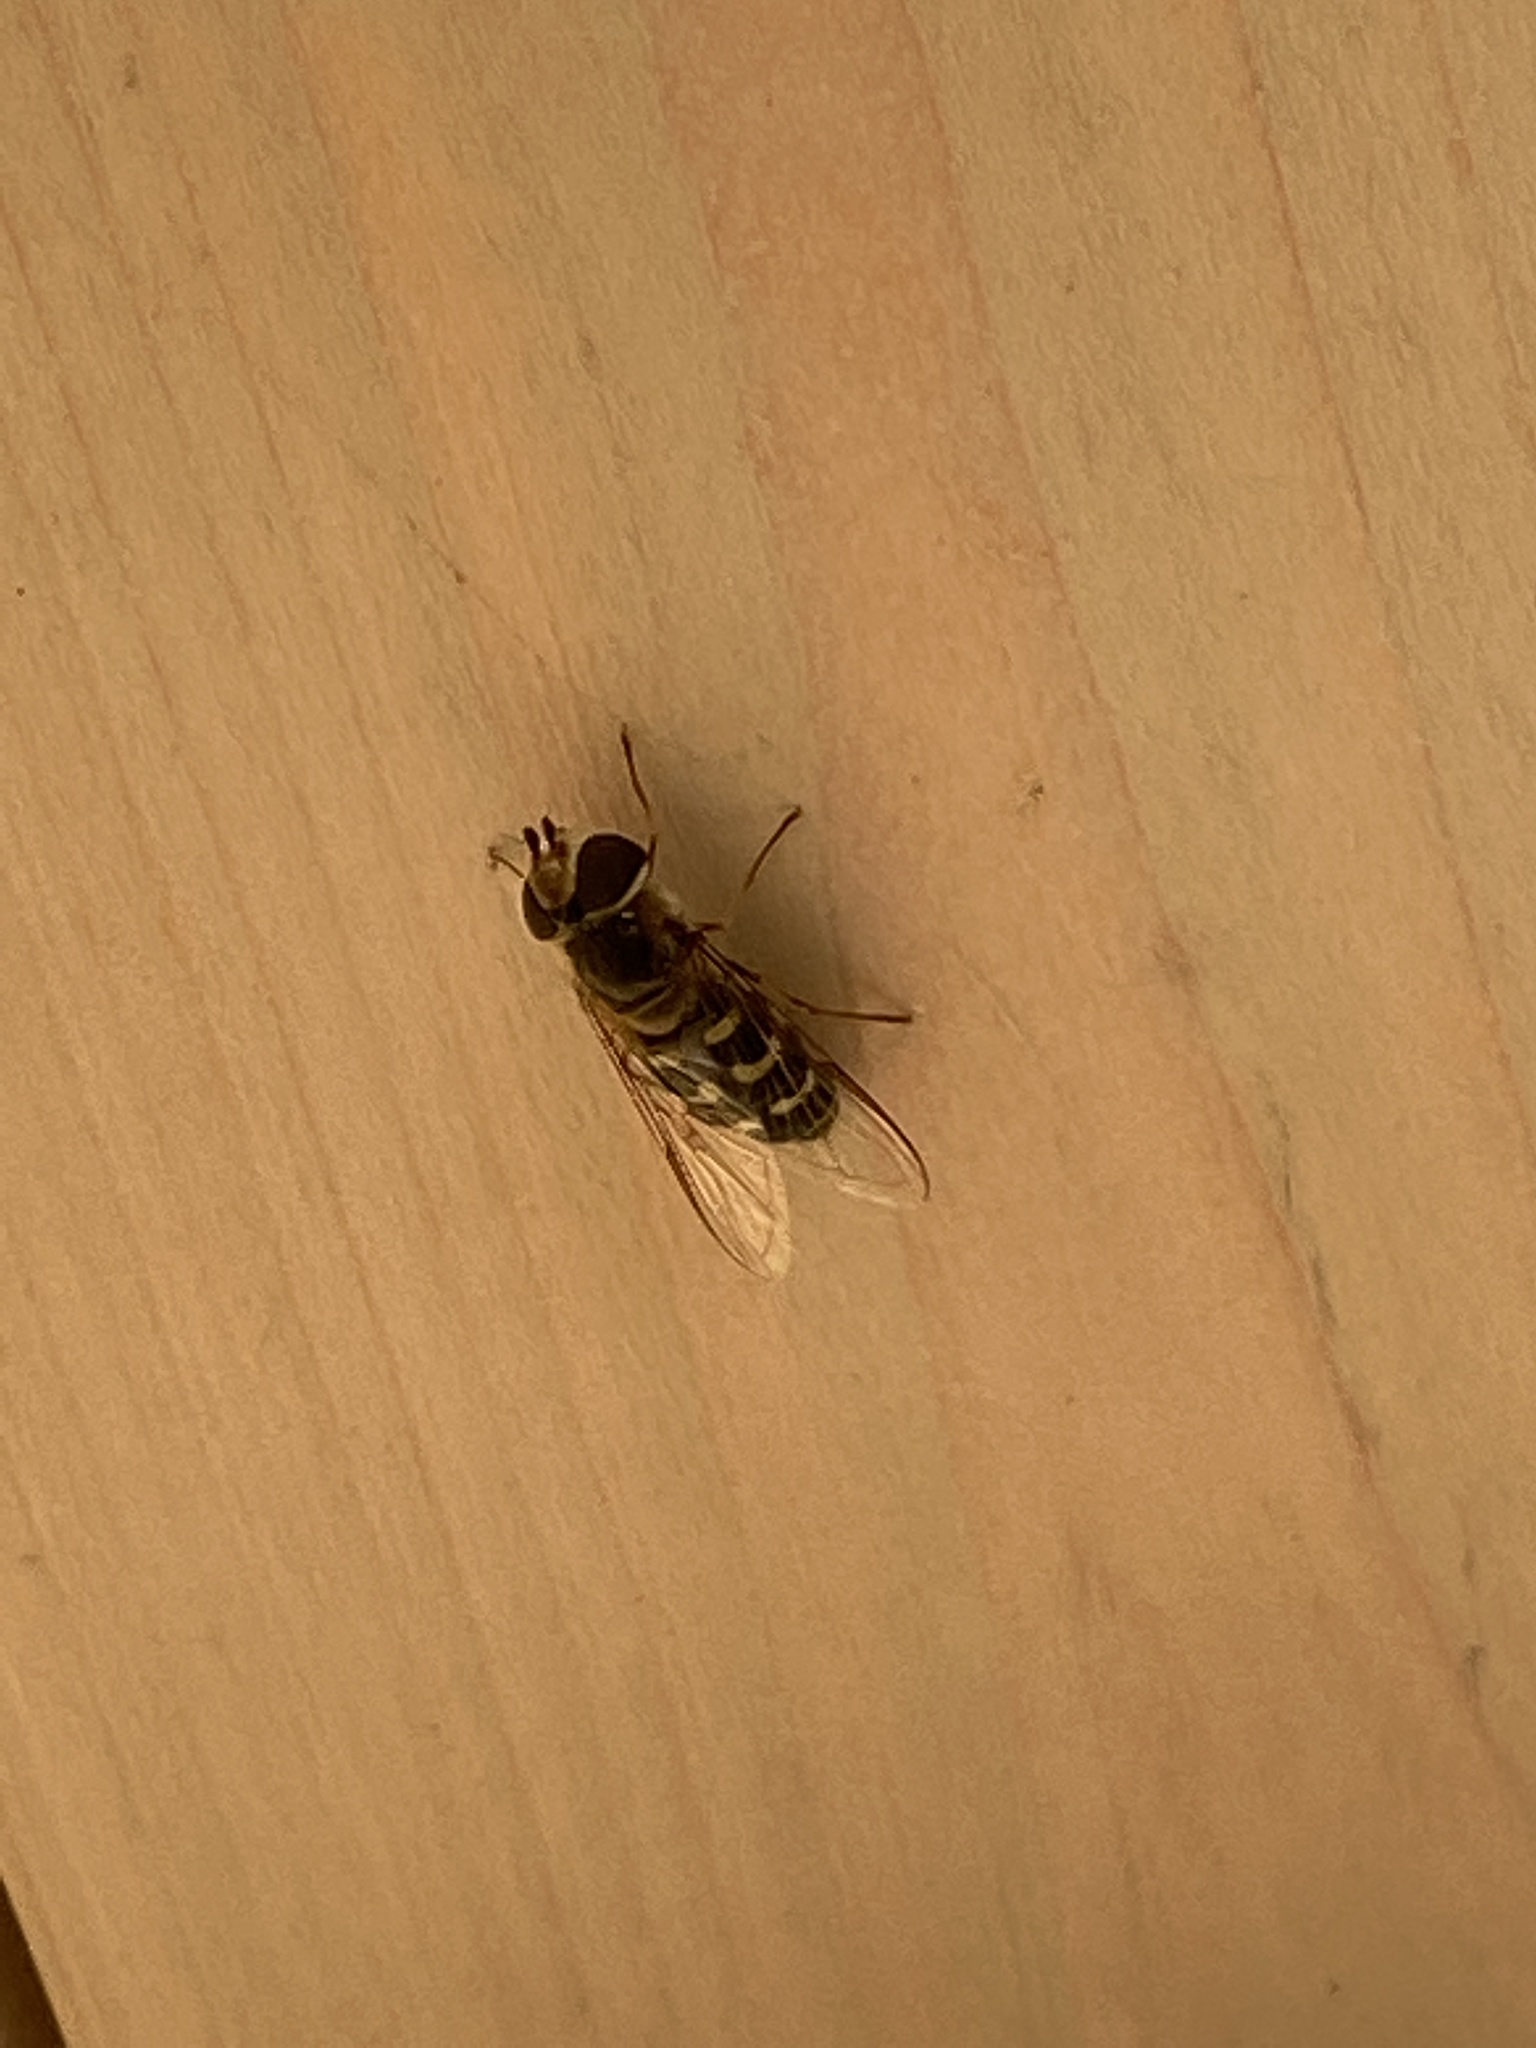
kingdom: Animalia
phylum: Arthropoda
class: Insecta
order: Diptera
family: Syrphidae
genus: Scaeva
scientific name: Scaeva selenitica
